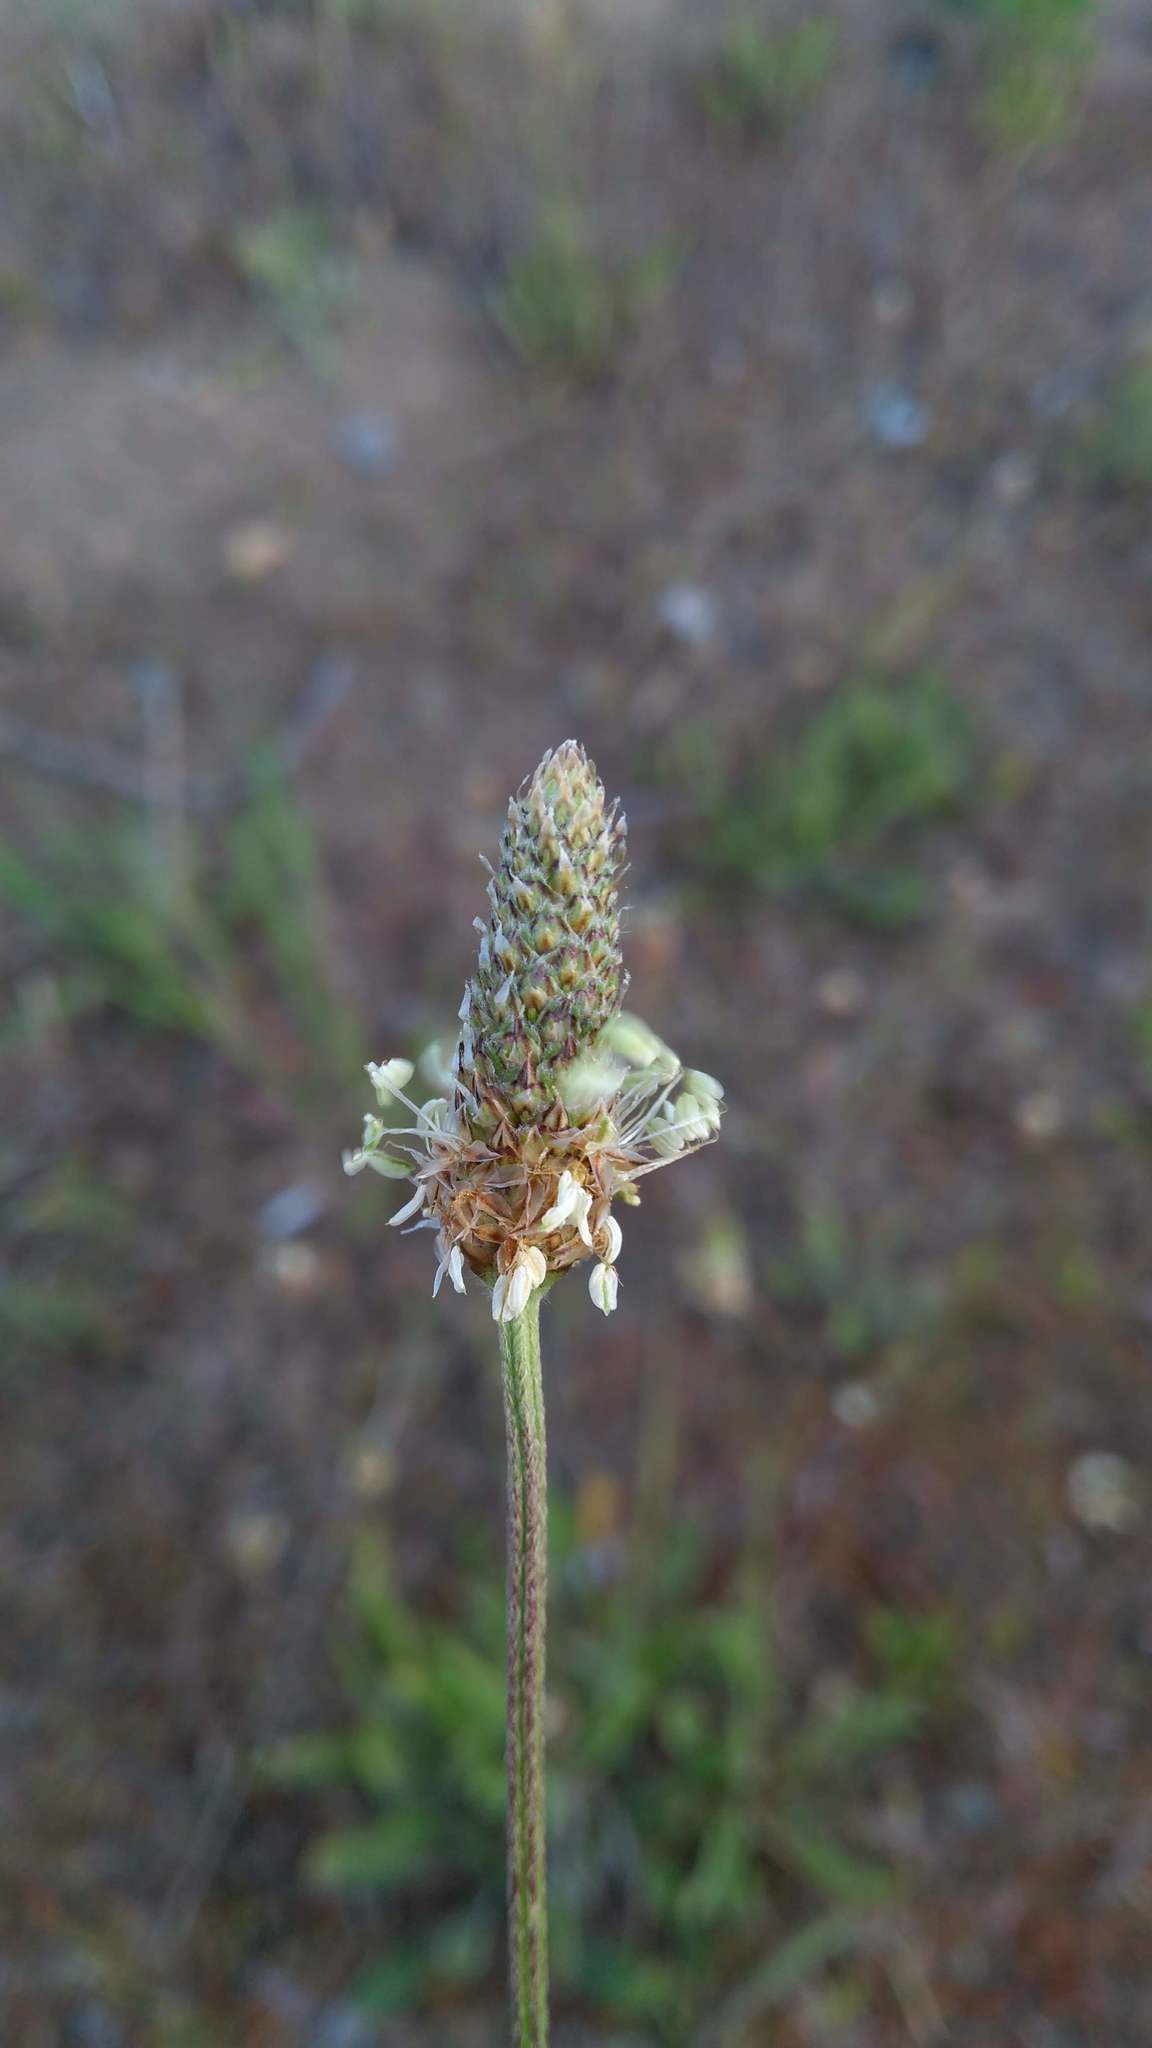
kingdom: Plantae
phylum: Tracheophyta
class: Magnoliopsida
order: Lamiales
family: Plantaginaceae
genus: Plantago
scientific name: Plantago lanceolata
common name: Ribwort plantain
